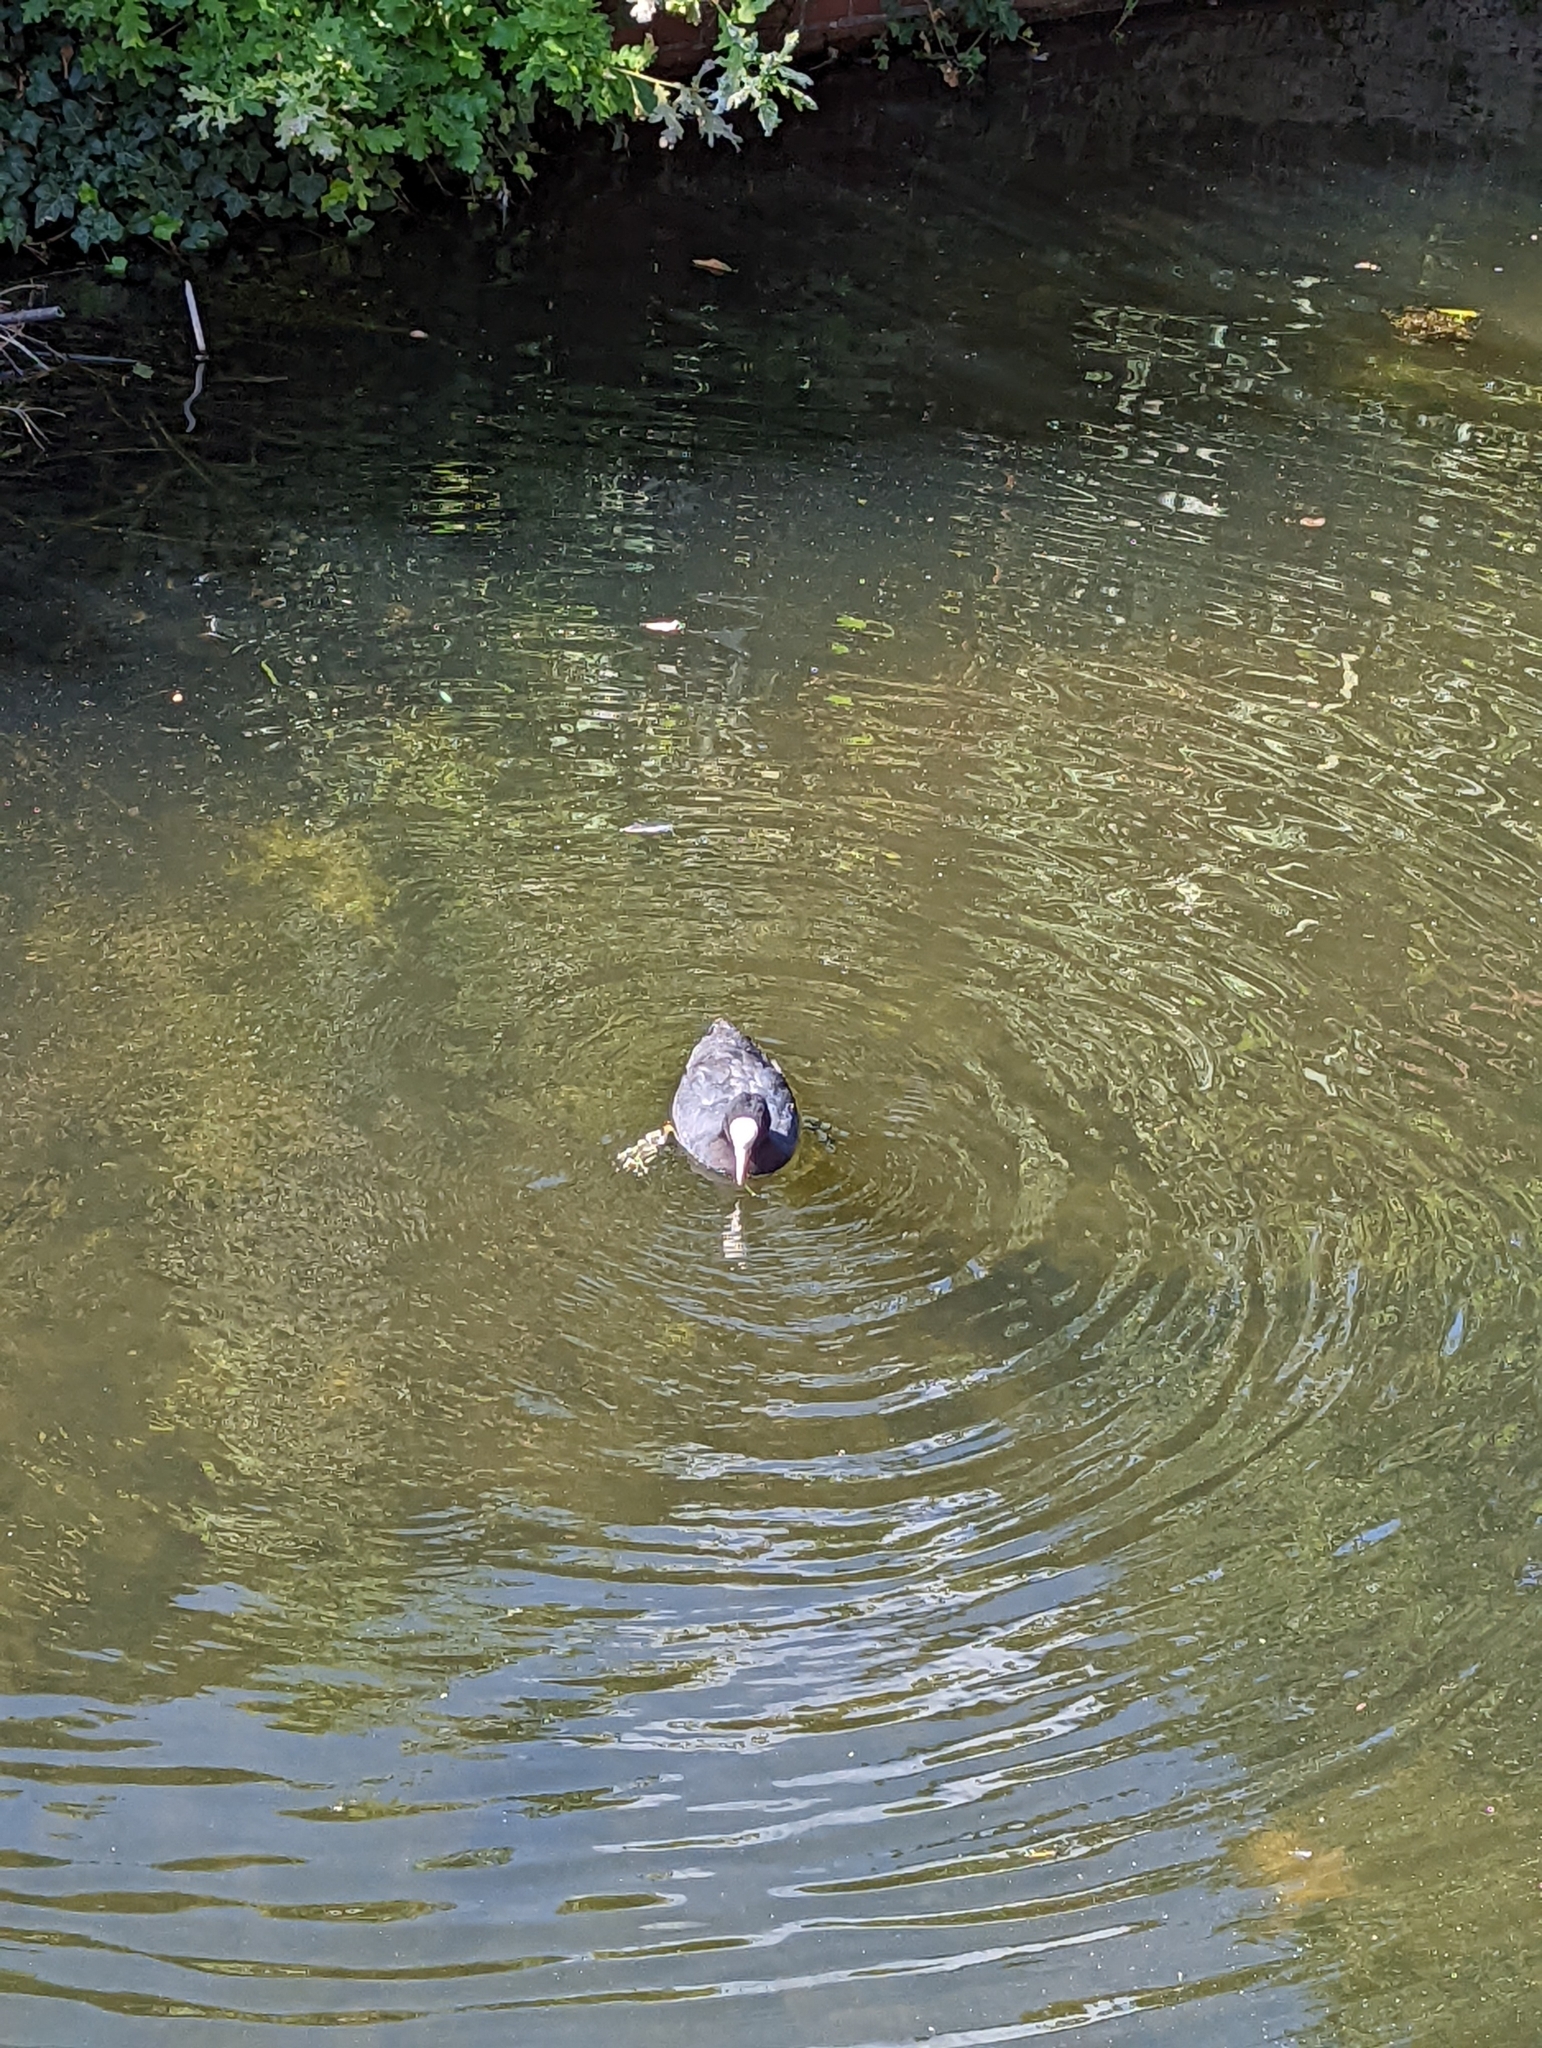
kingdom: Animalia
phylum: Chordata
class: Aves
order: Gruiformes
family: Rallidae
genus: Fulica
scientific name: Fulica atra
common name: Eurasian coot
